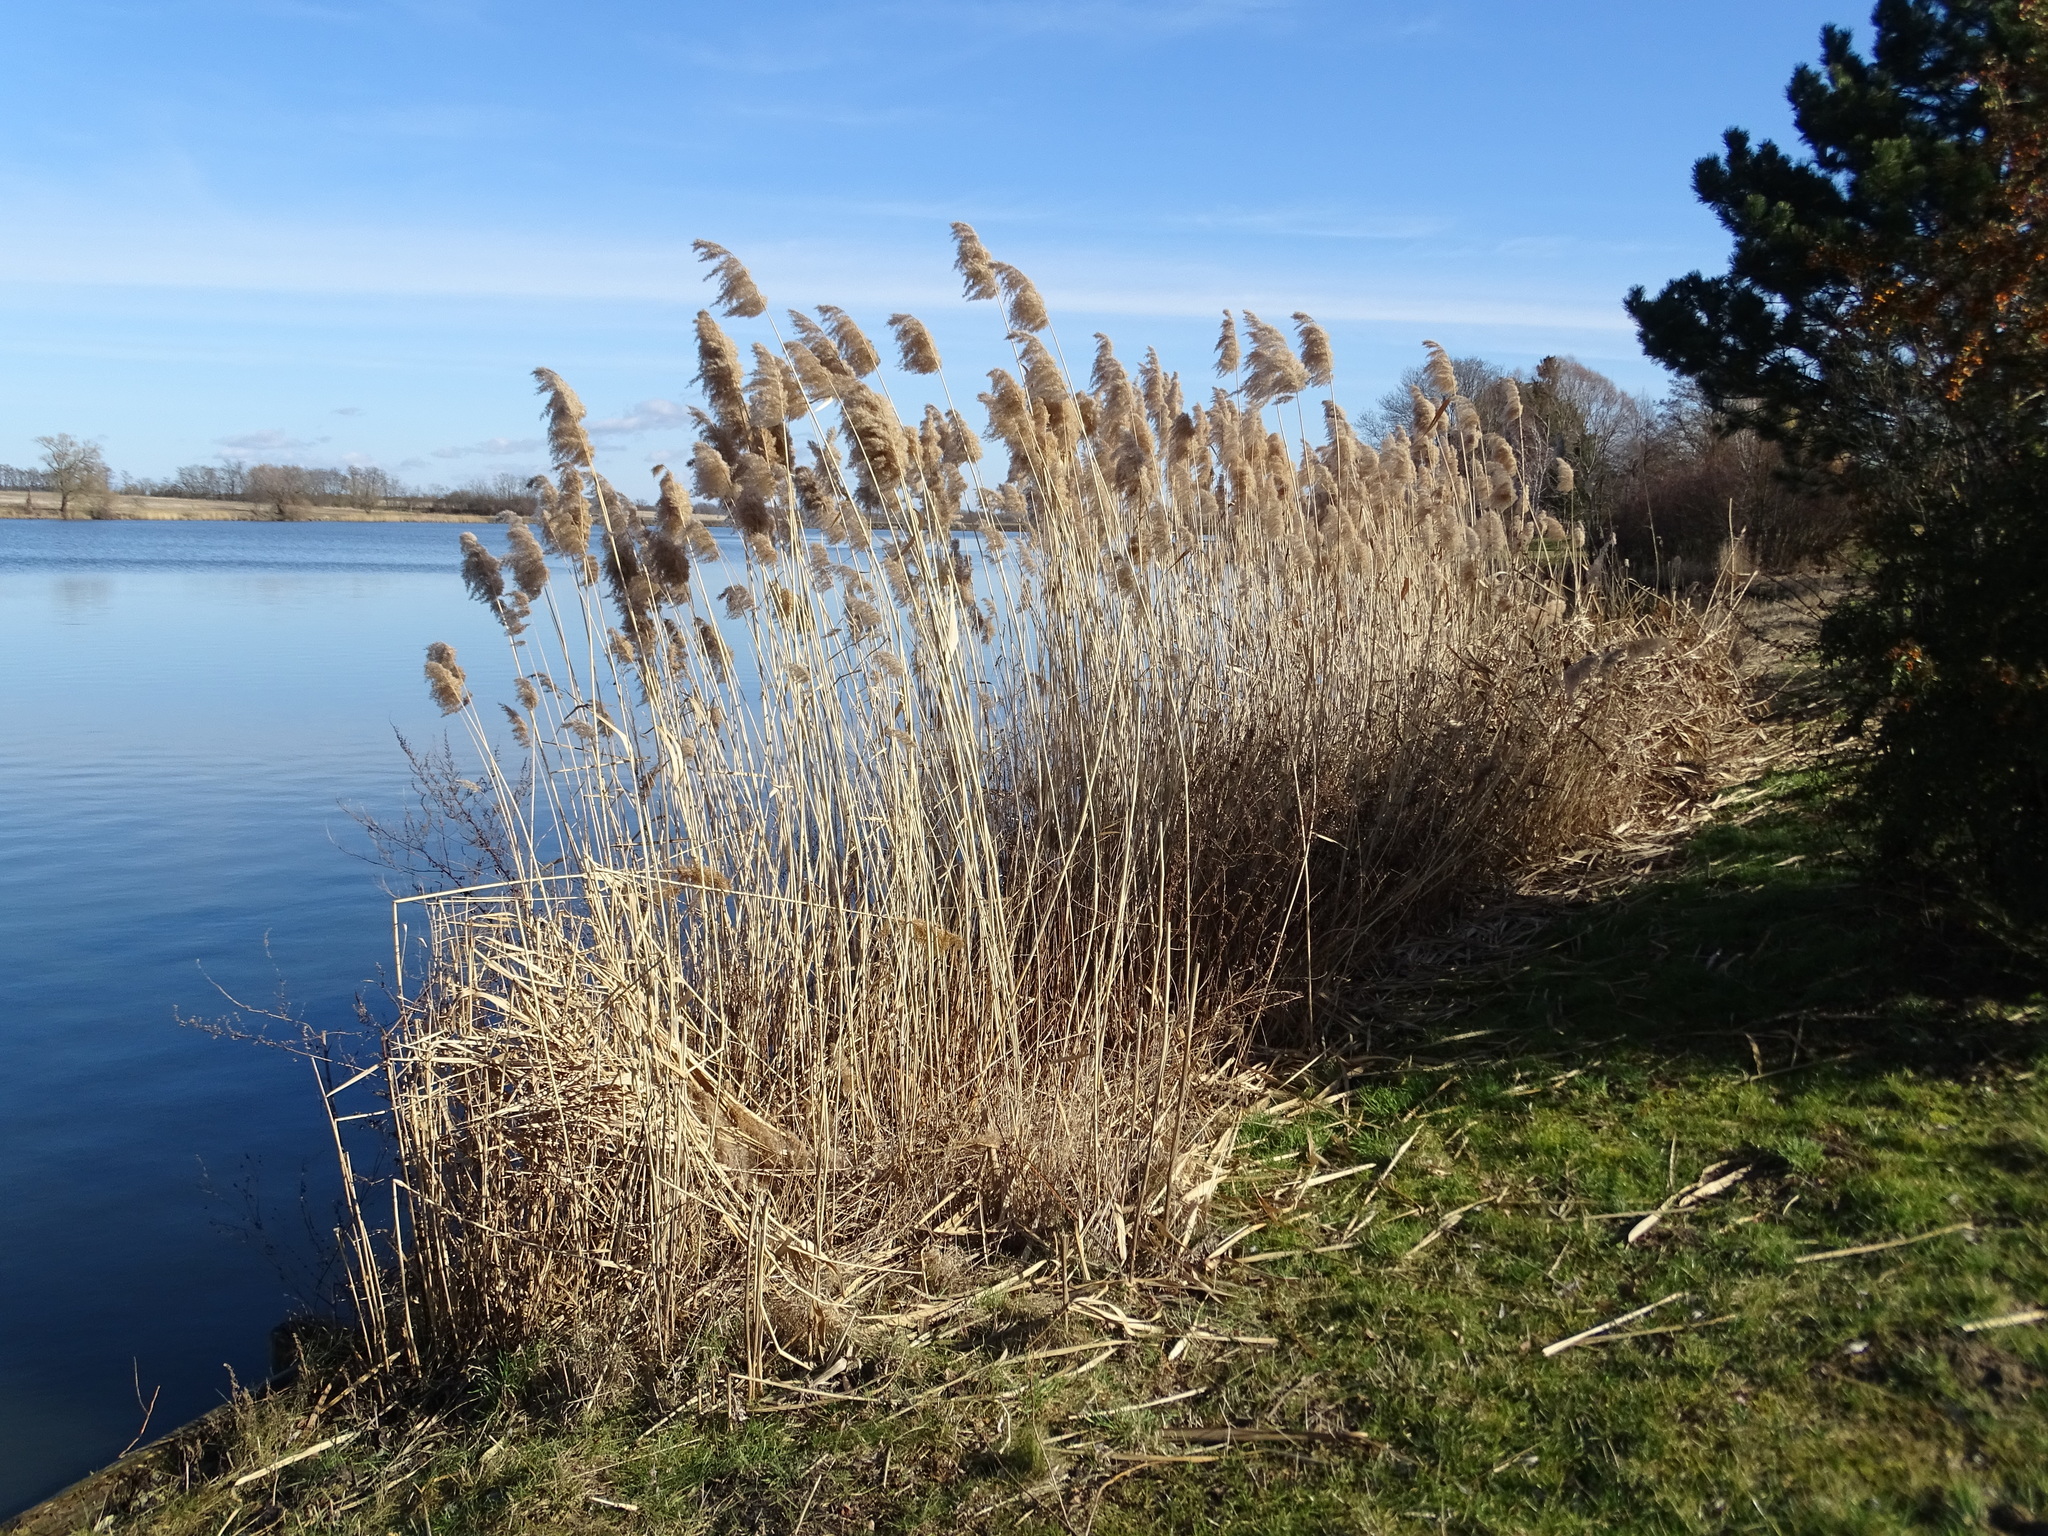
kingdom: Plantae
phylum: Tracheophyta
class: Liliopsida
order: Poales
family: Poaceae
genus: Phragmites
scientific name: Phragmites australis
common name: Common reed
